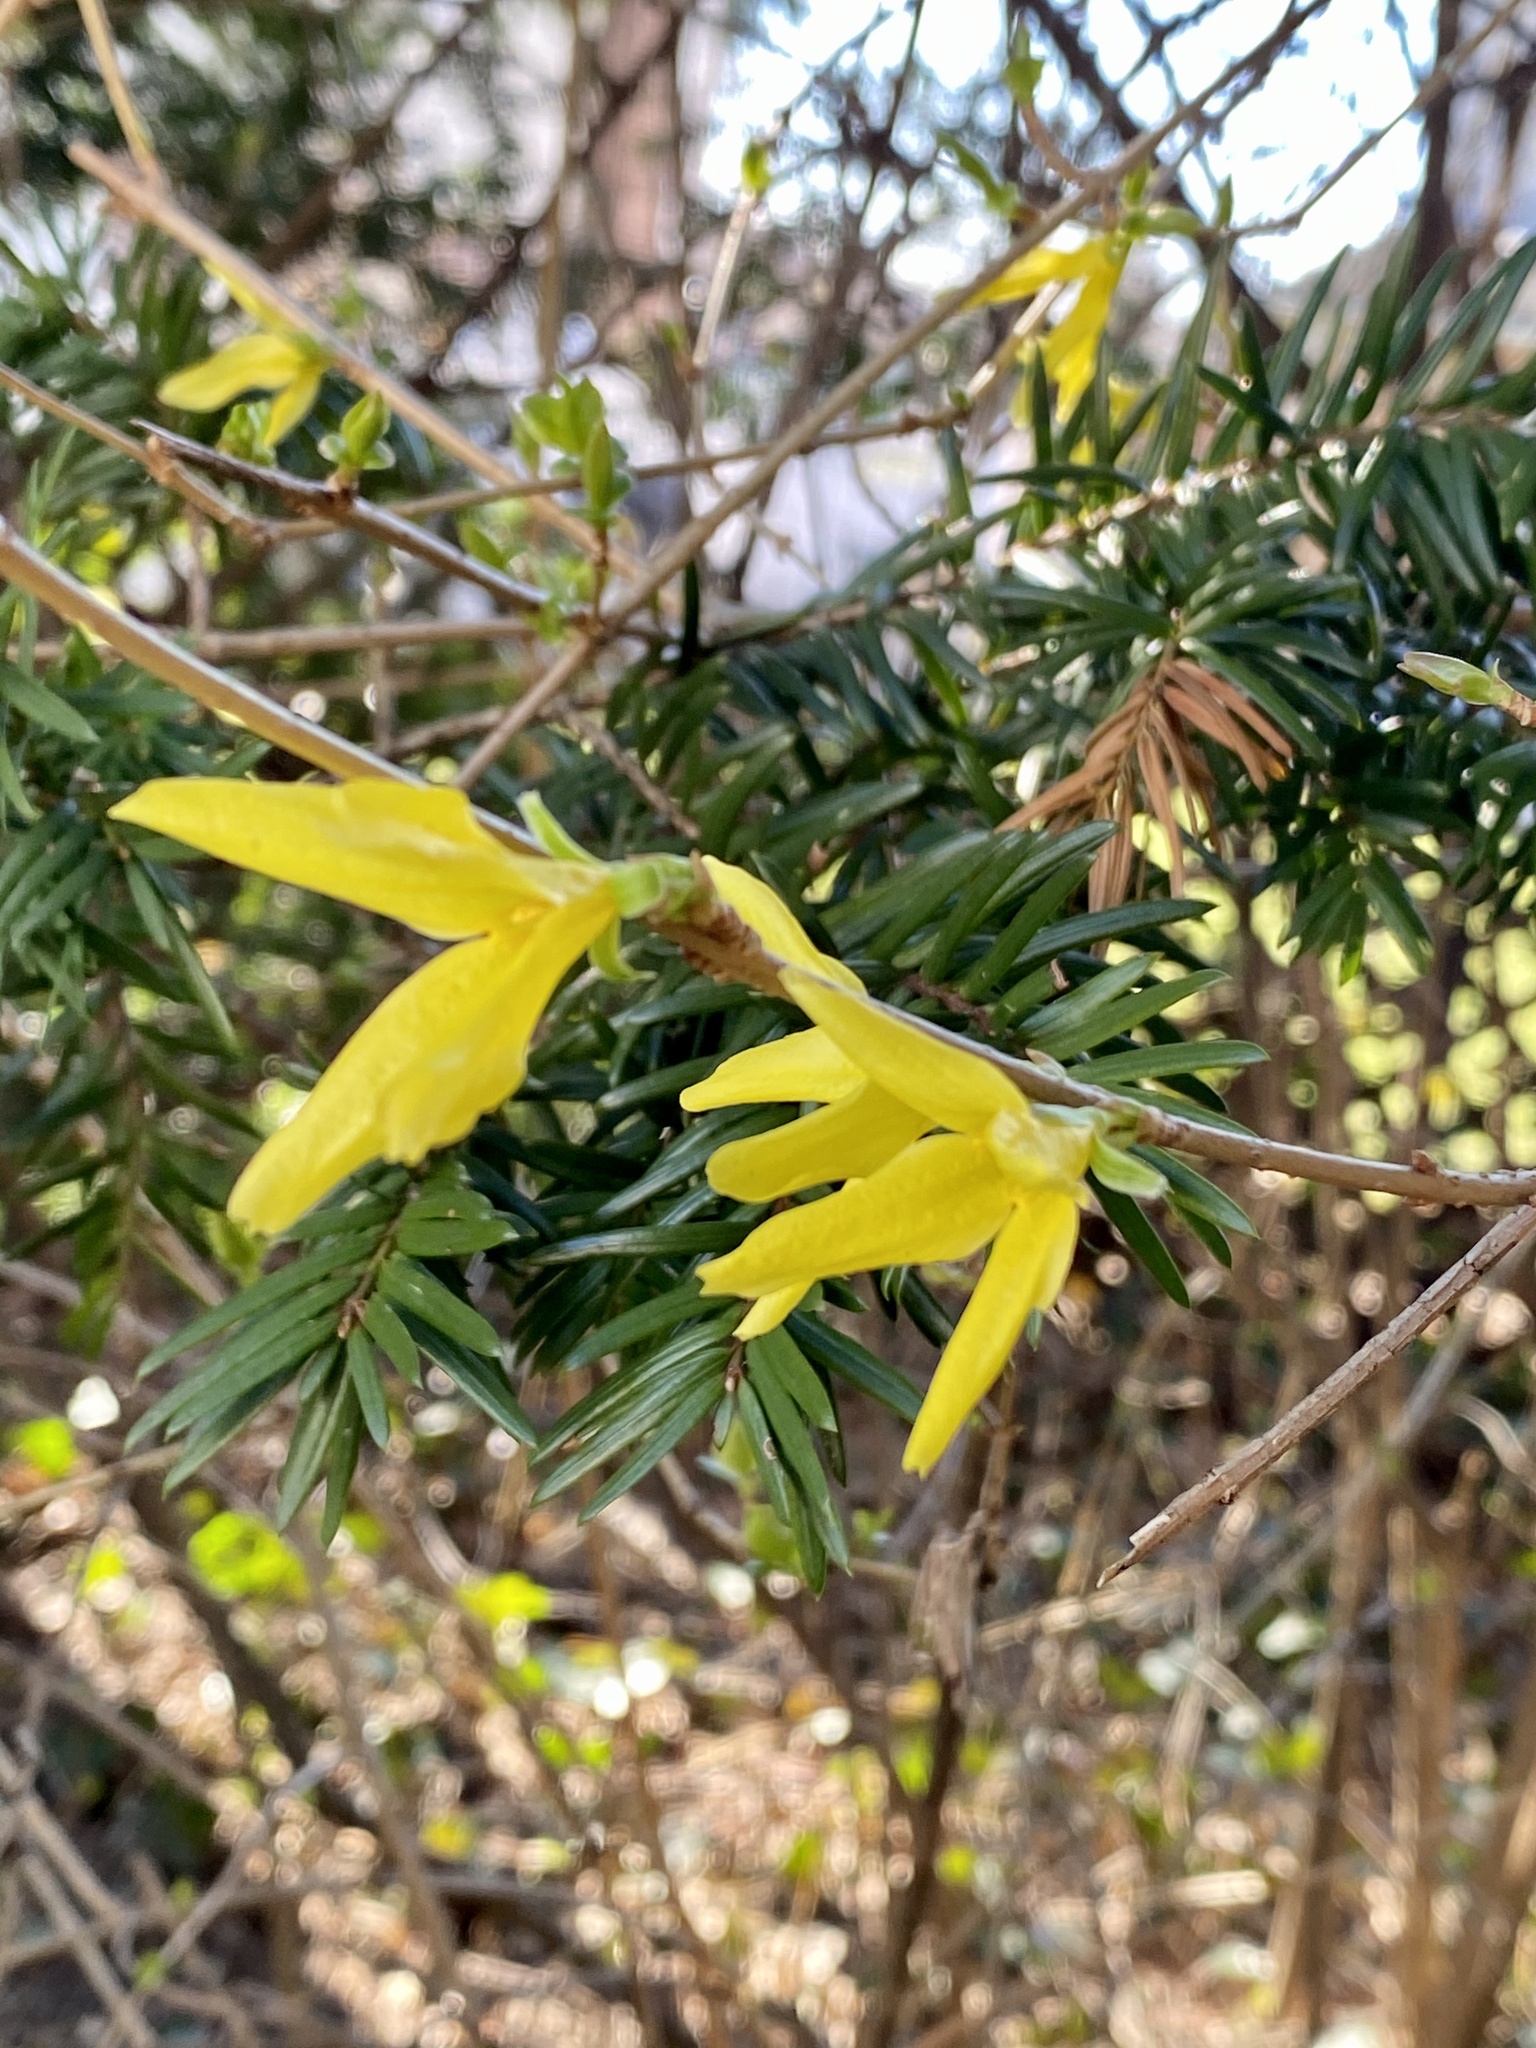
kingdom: Plantae
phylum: Tracheophyta
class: Magnoliopsida
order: Lamiales
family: Oleaceae
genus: Forsythia
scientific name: Forsythia
